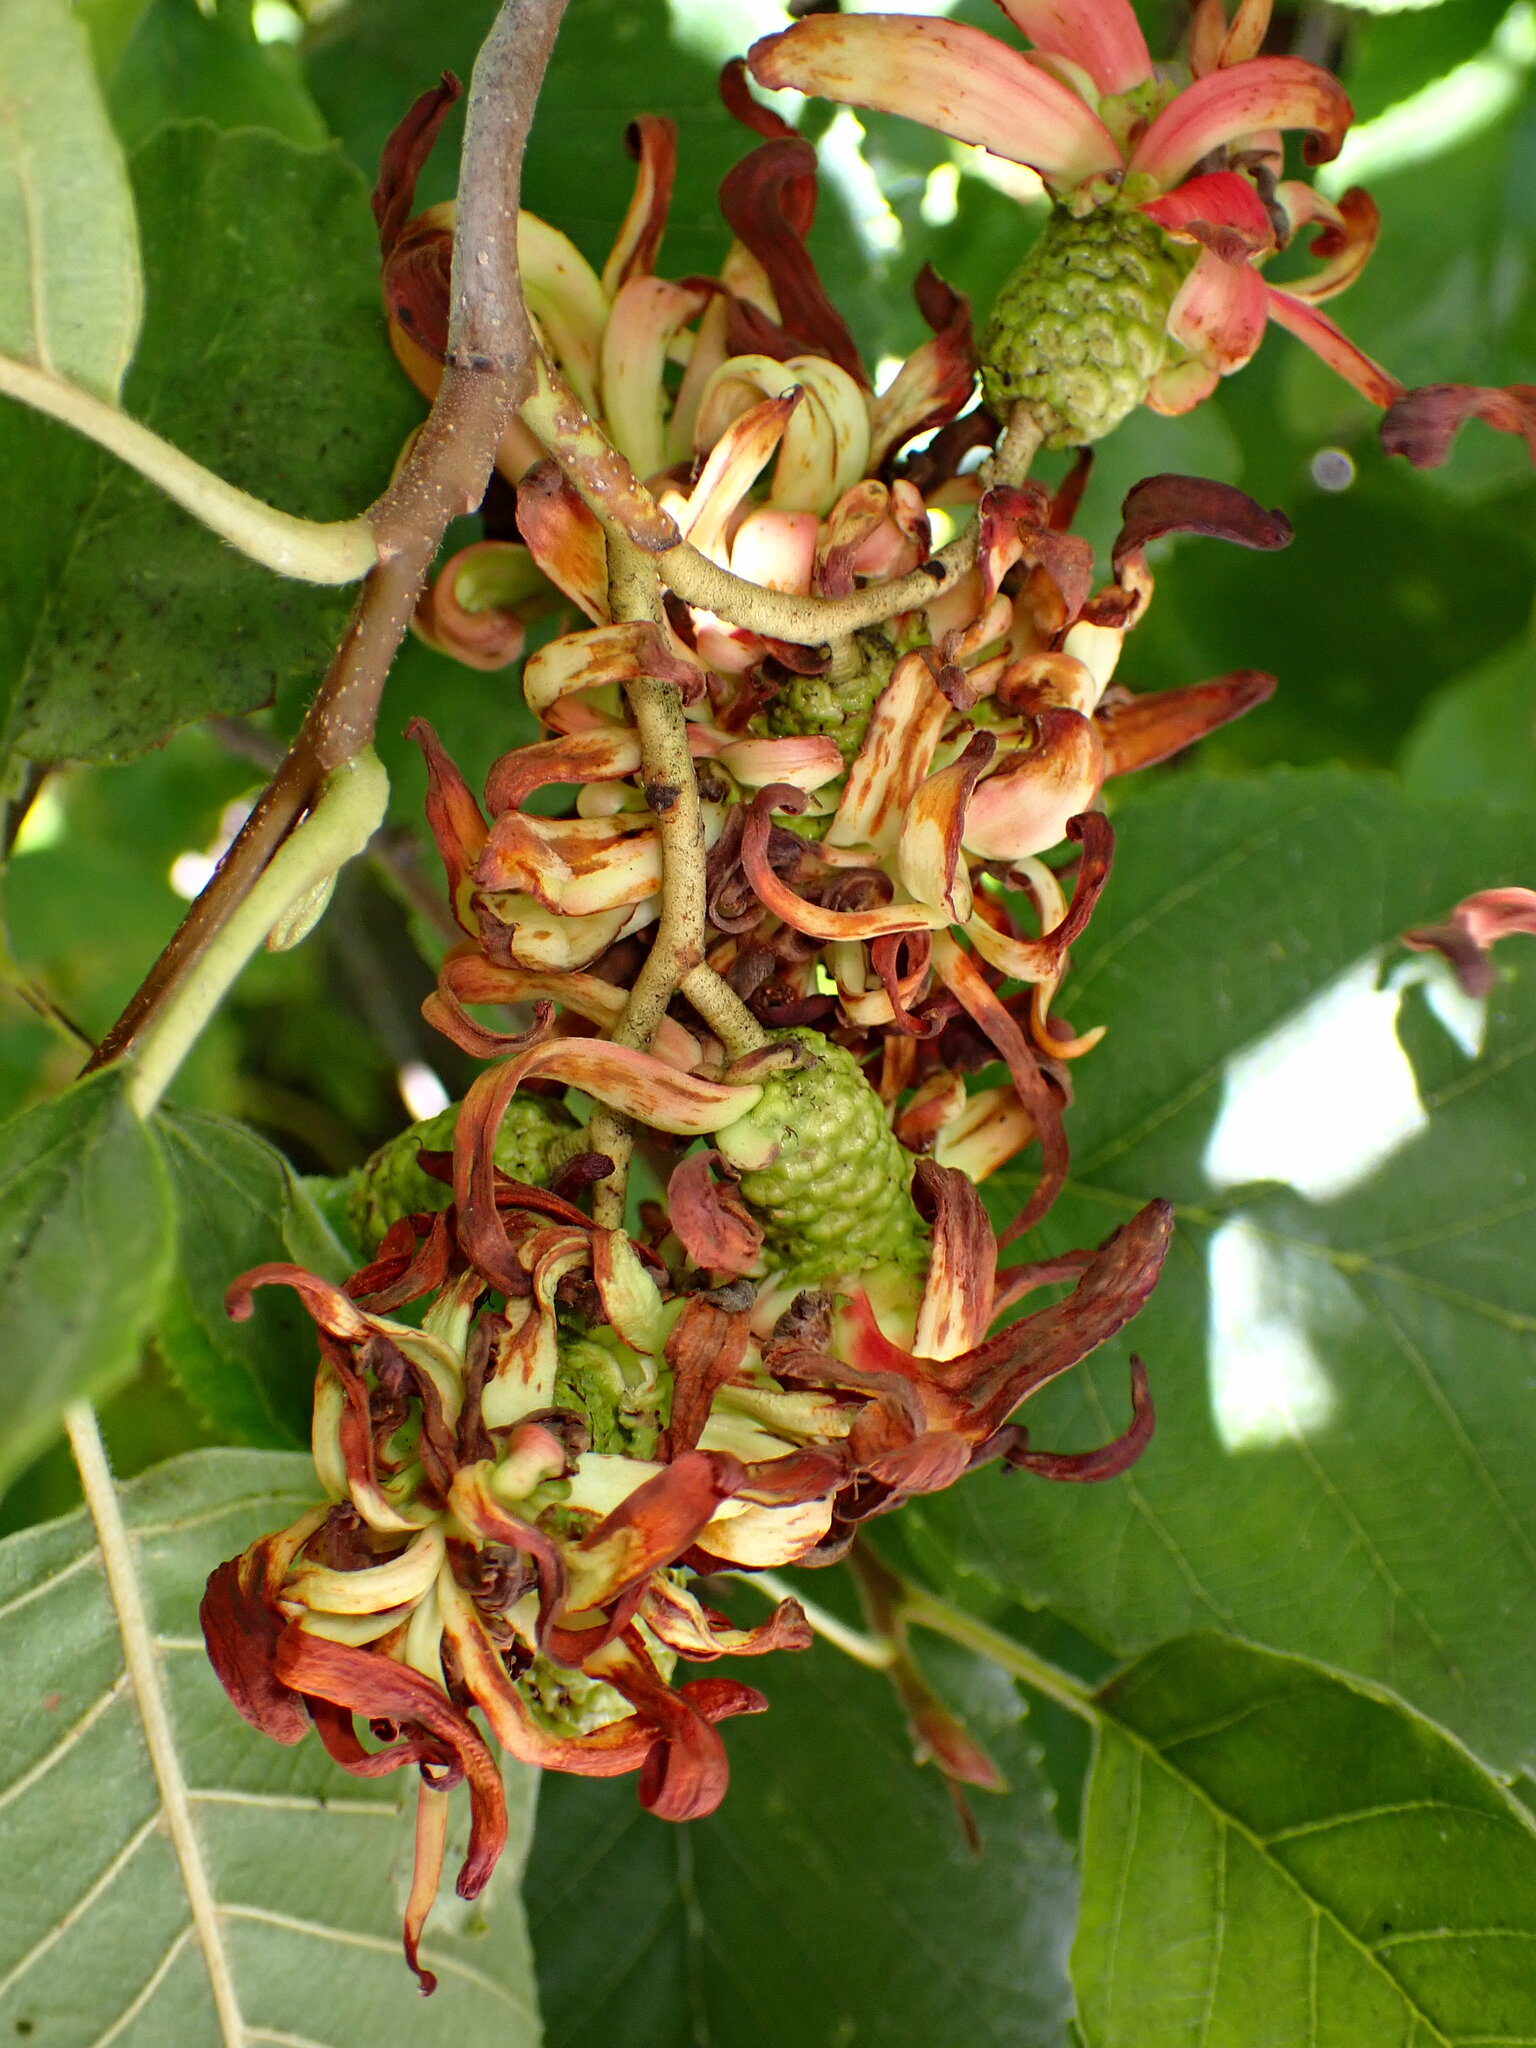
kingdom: Fungi
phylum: Ascomycota
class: Taphrinomycetes
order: Taphrinales
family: Taphrinaceae
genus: Taphrina
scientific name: Taphrina occidentalis
